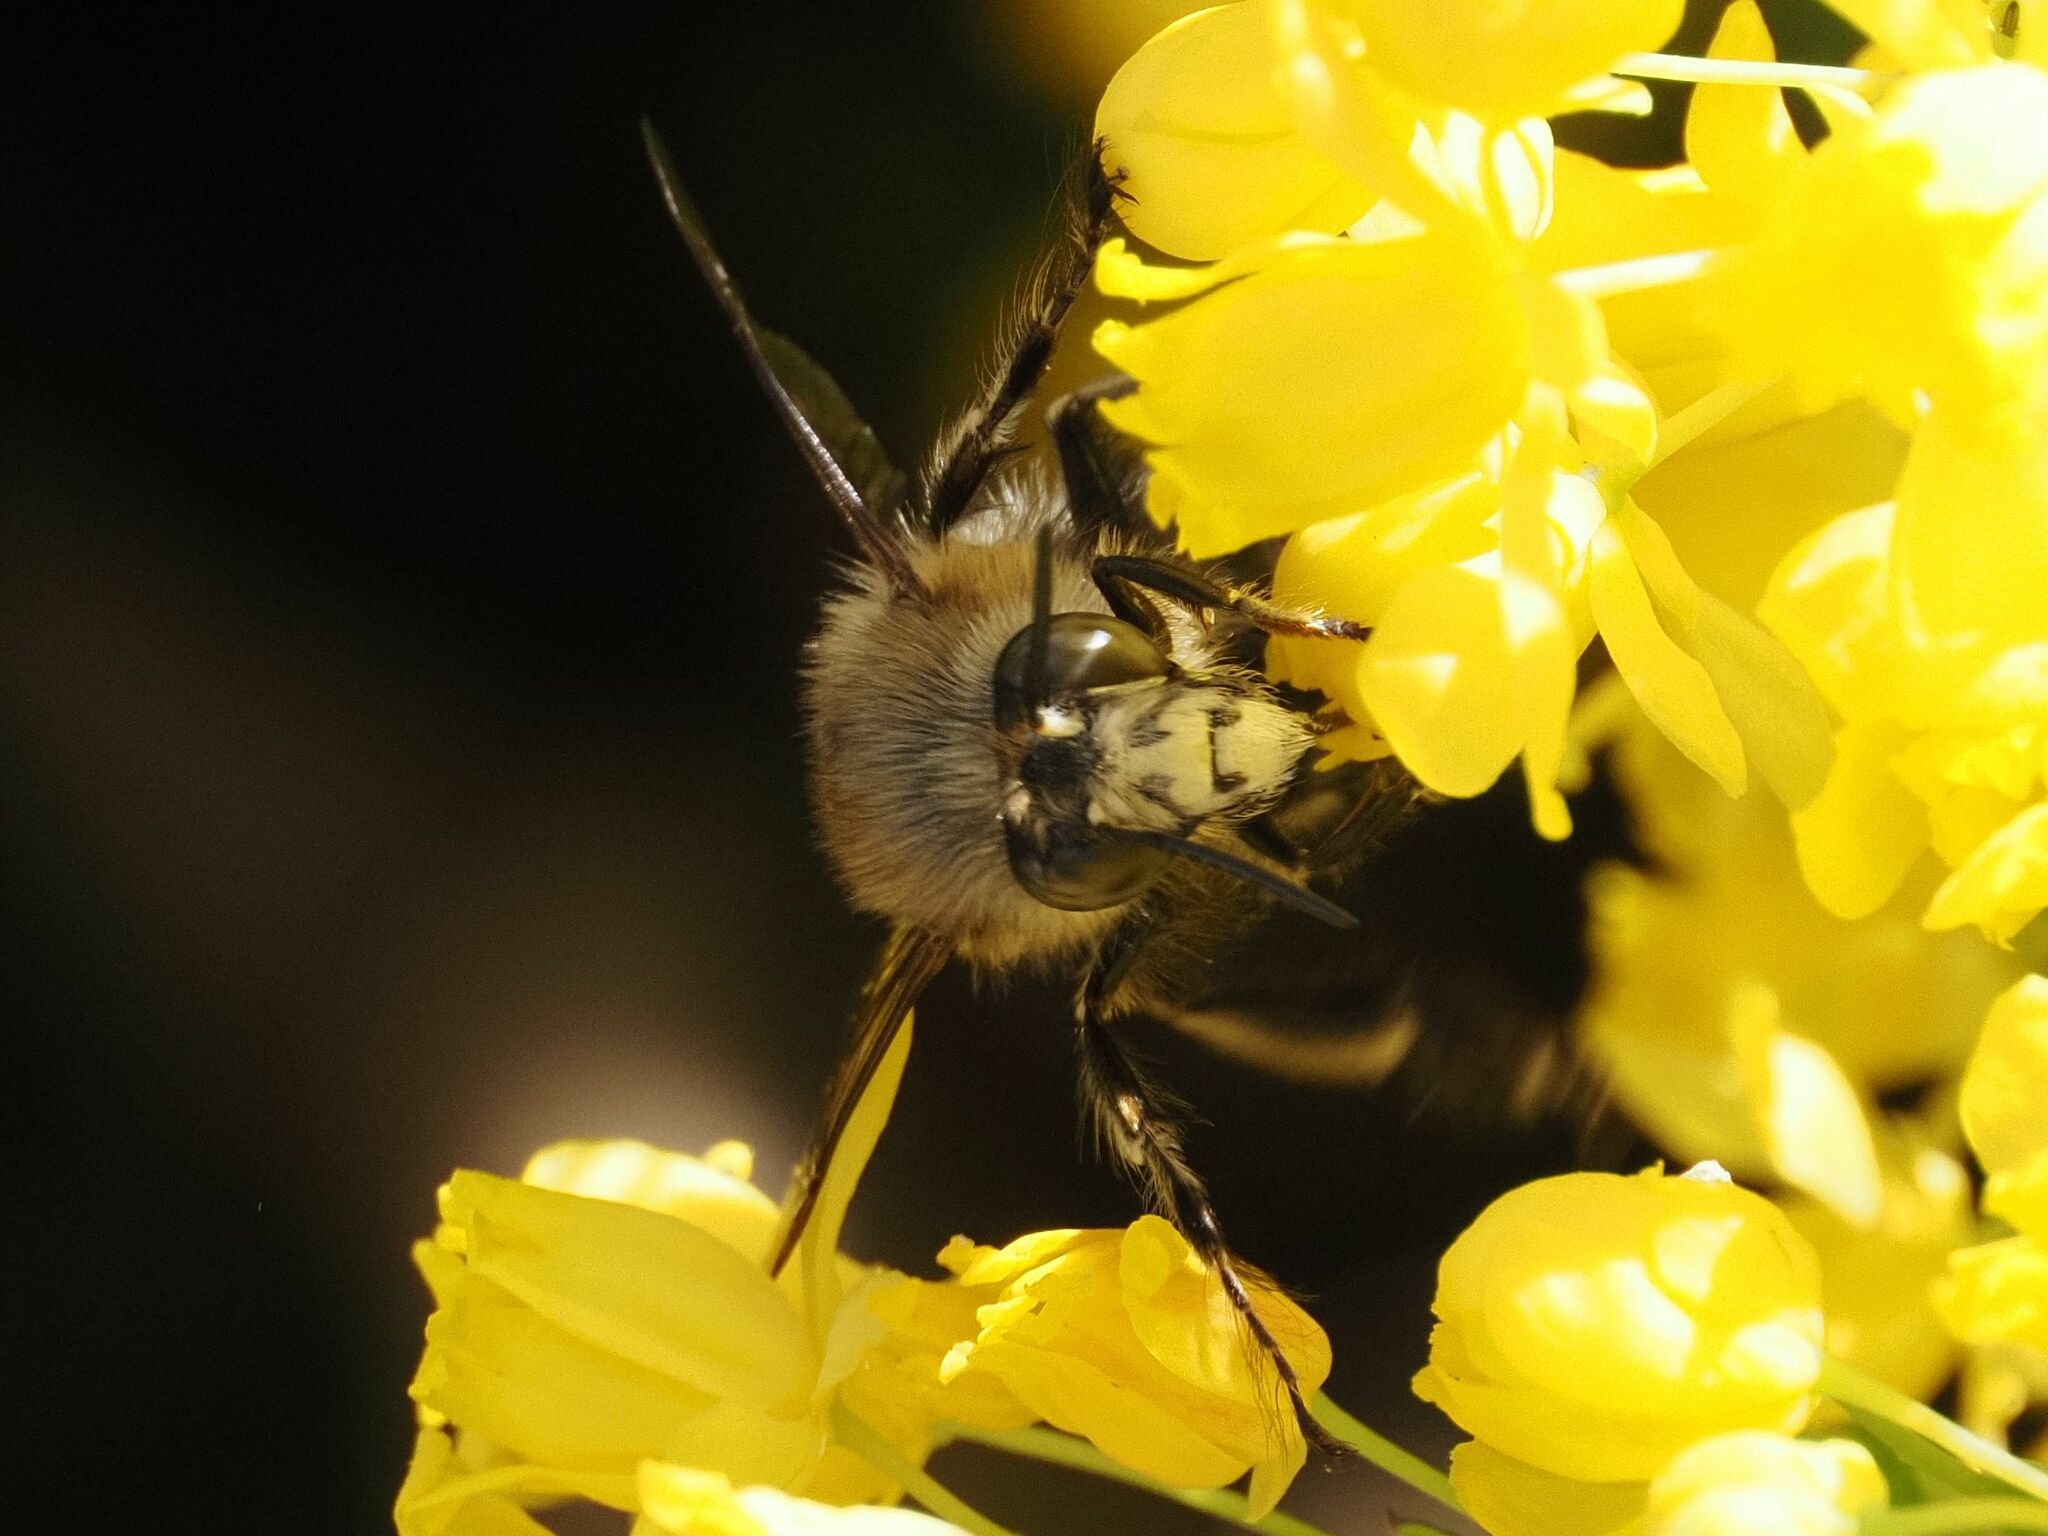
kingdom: Animalia
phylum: Arthropoda
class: Insecta
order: Hymenoptera
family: Apidae
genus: Anthophora
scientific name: Anthophora plumipes
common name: Hairy-footed flower bee
